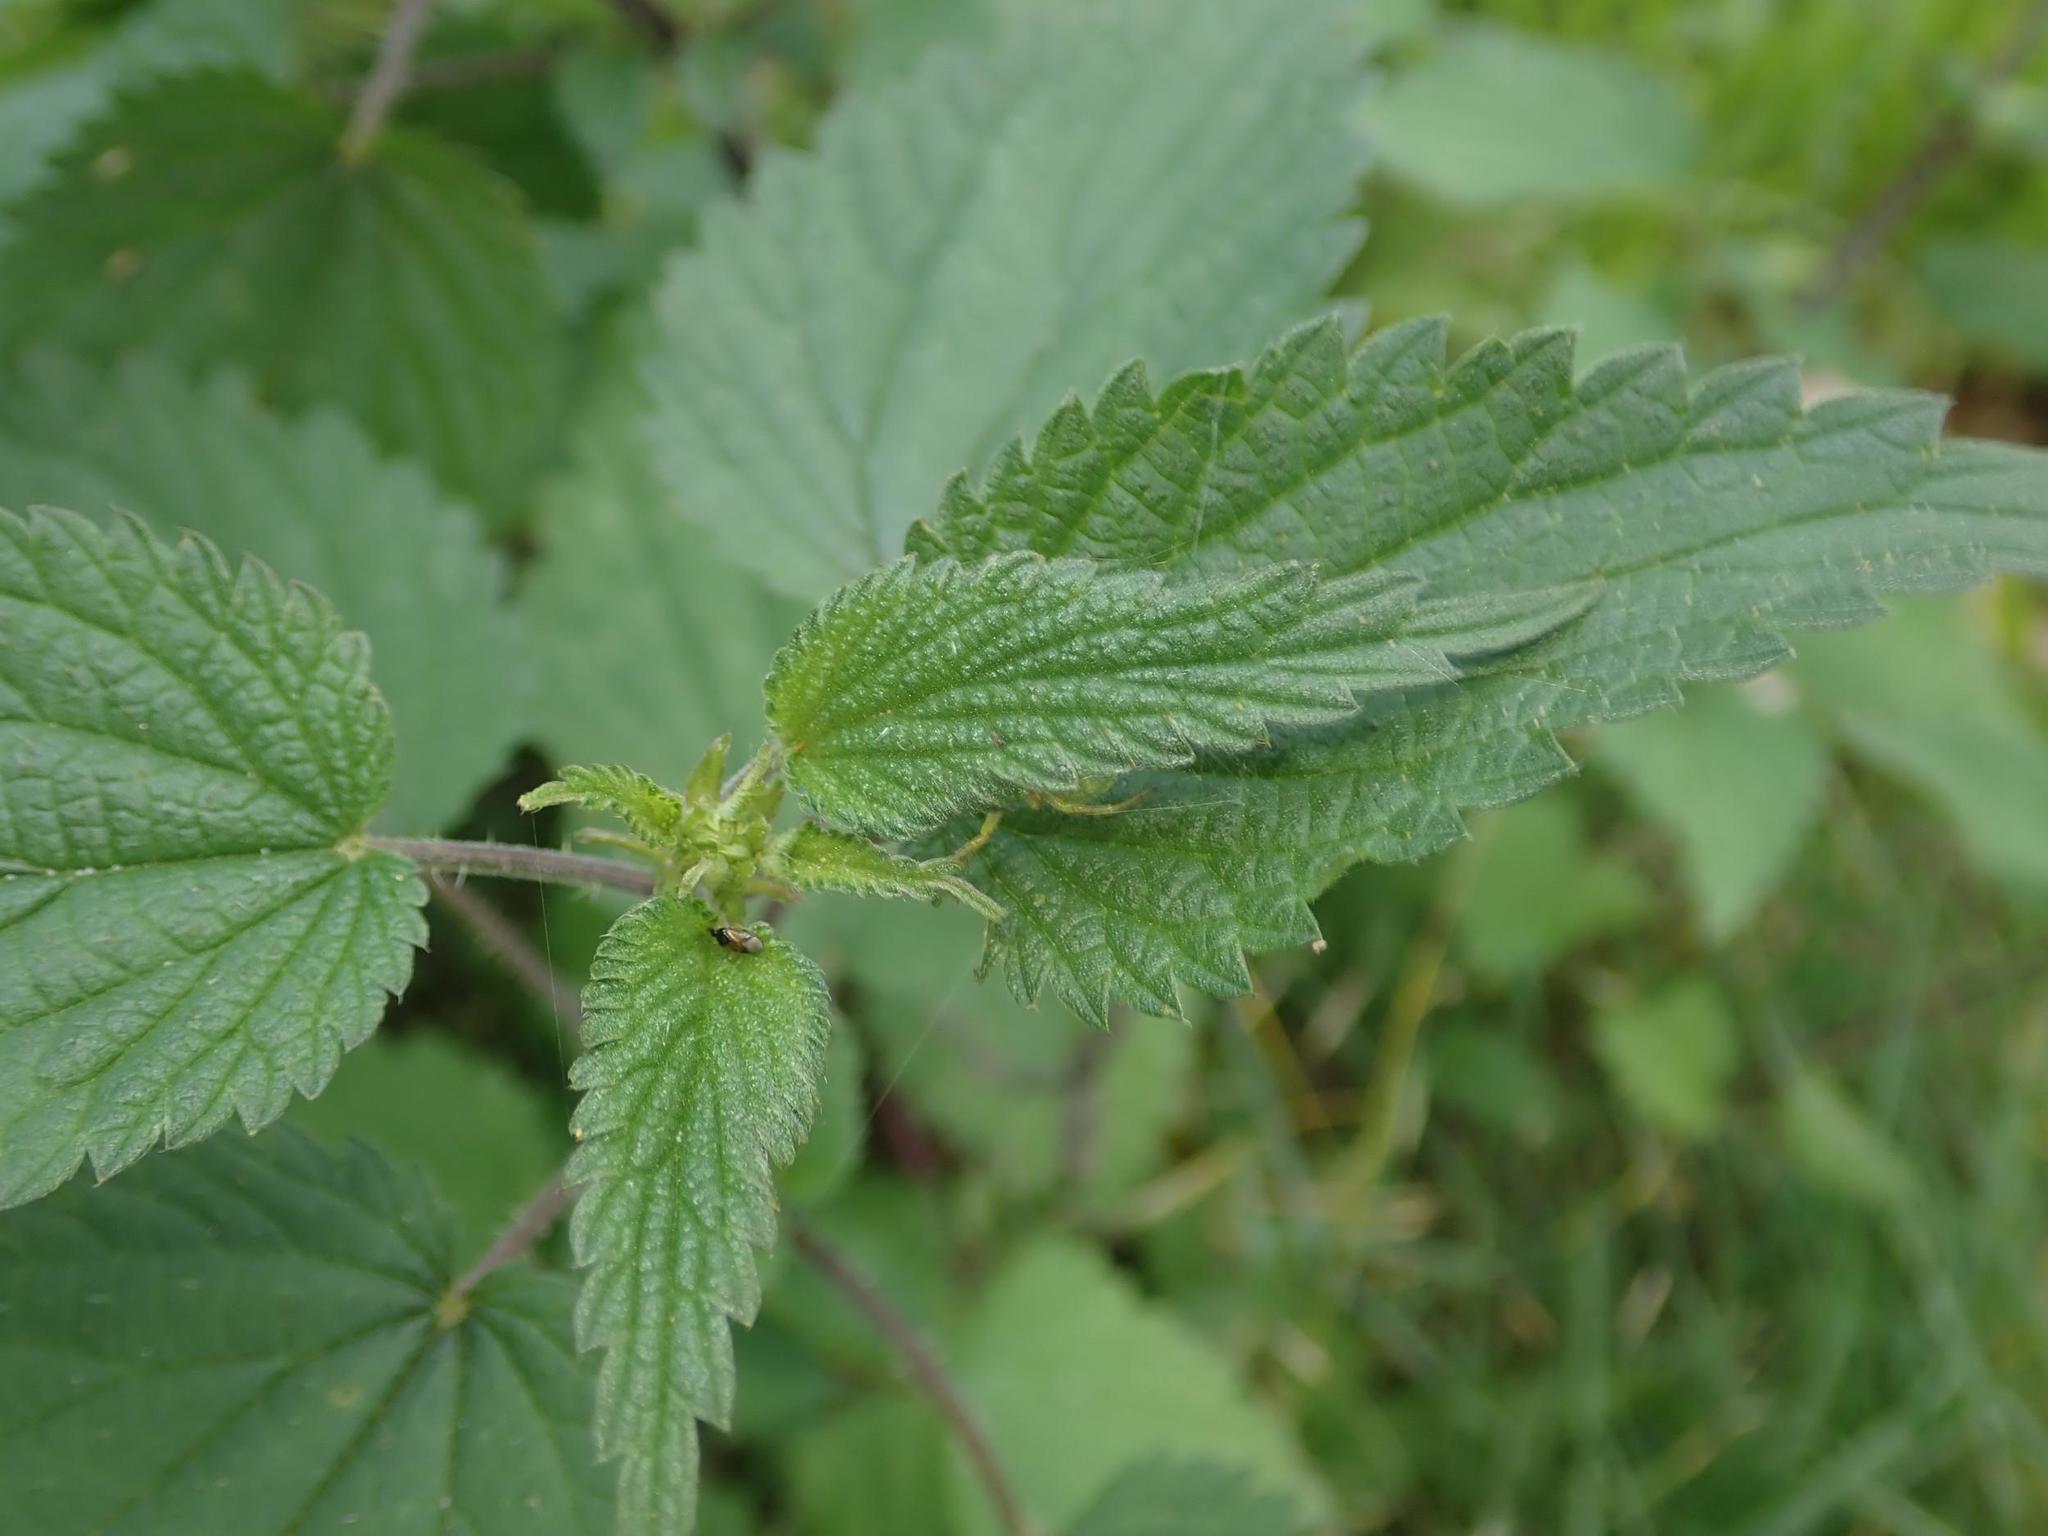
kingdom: Plantae
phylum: Tracheophyta
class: Magnoliopsida
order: Rosales
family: Urticaceae
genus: Urtica
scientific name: Urtica dioica
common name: Common nettle
